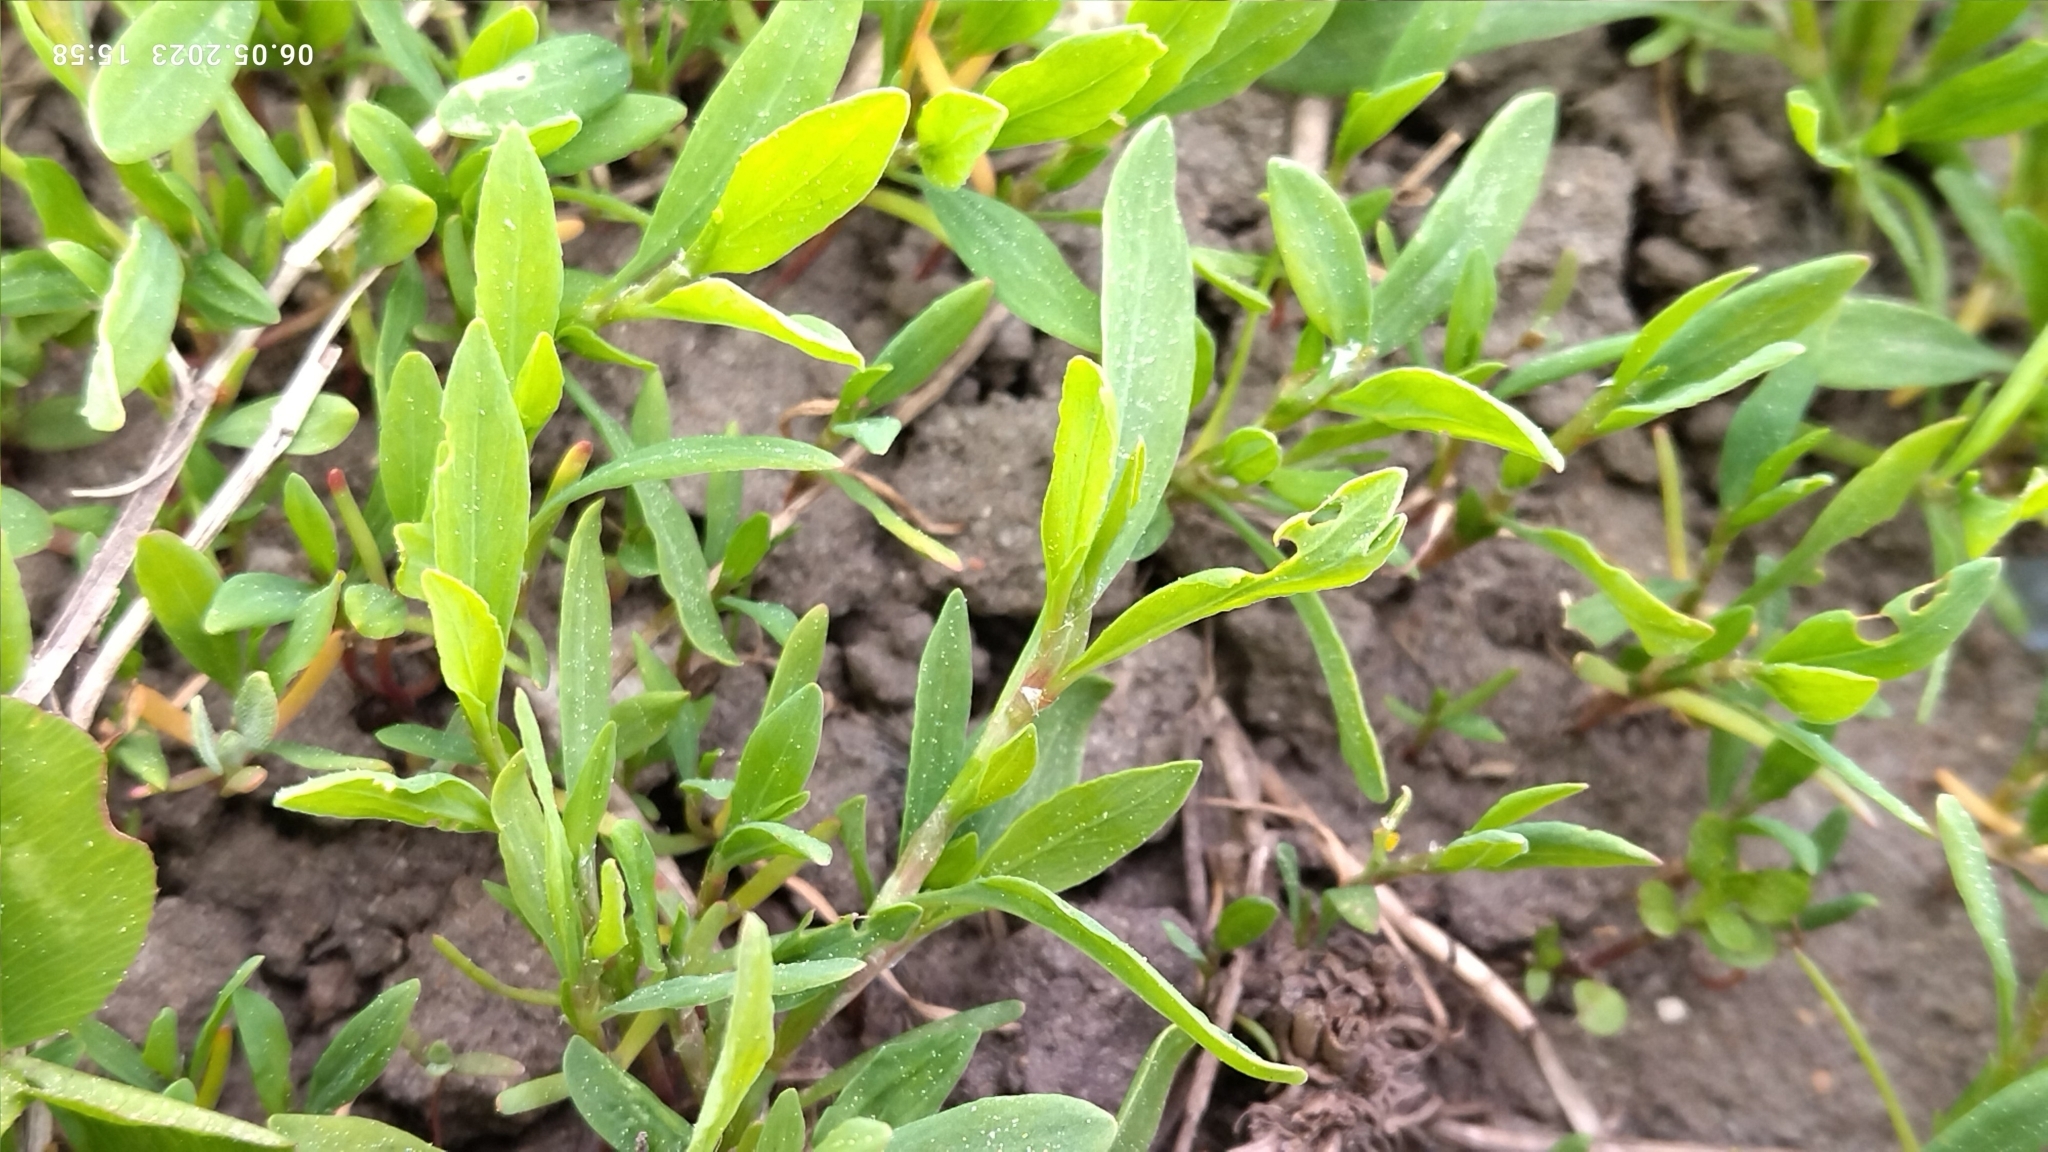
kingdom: Plantae
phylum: Tracheophyta
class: Magnoliopsida
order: Caryophyllales
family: Polygonaceae
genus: Polygonum
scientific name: Polygonum
